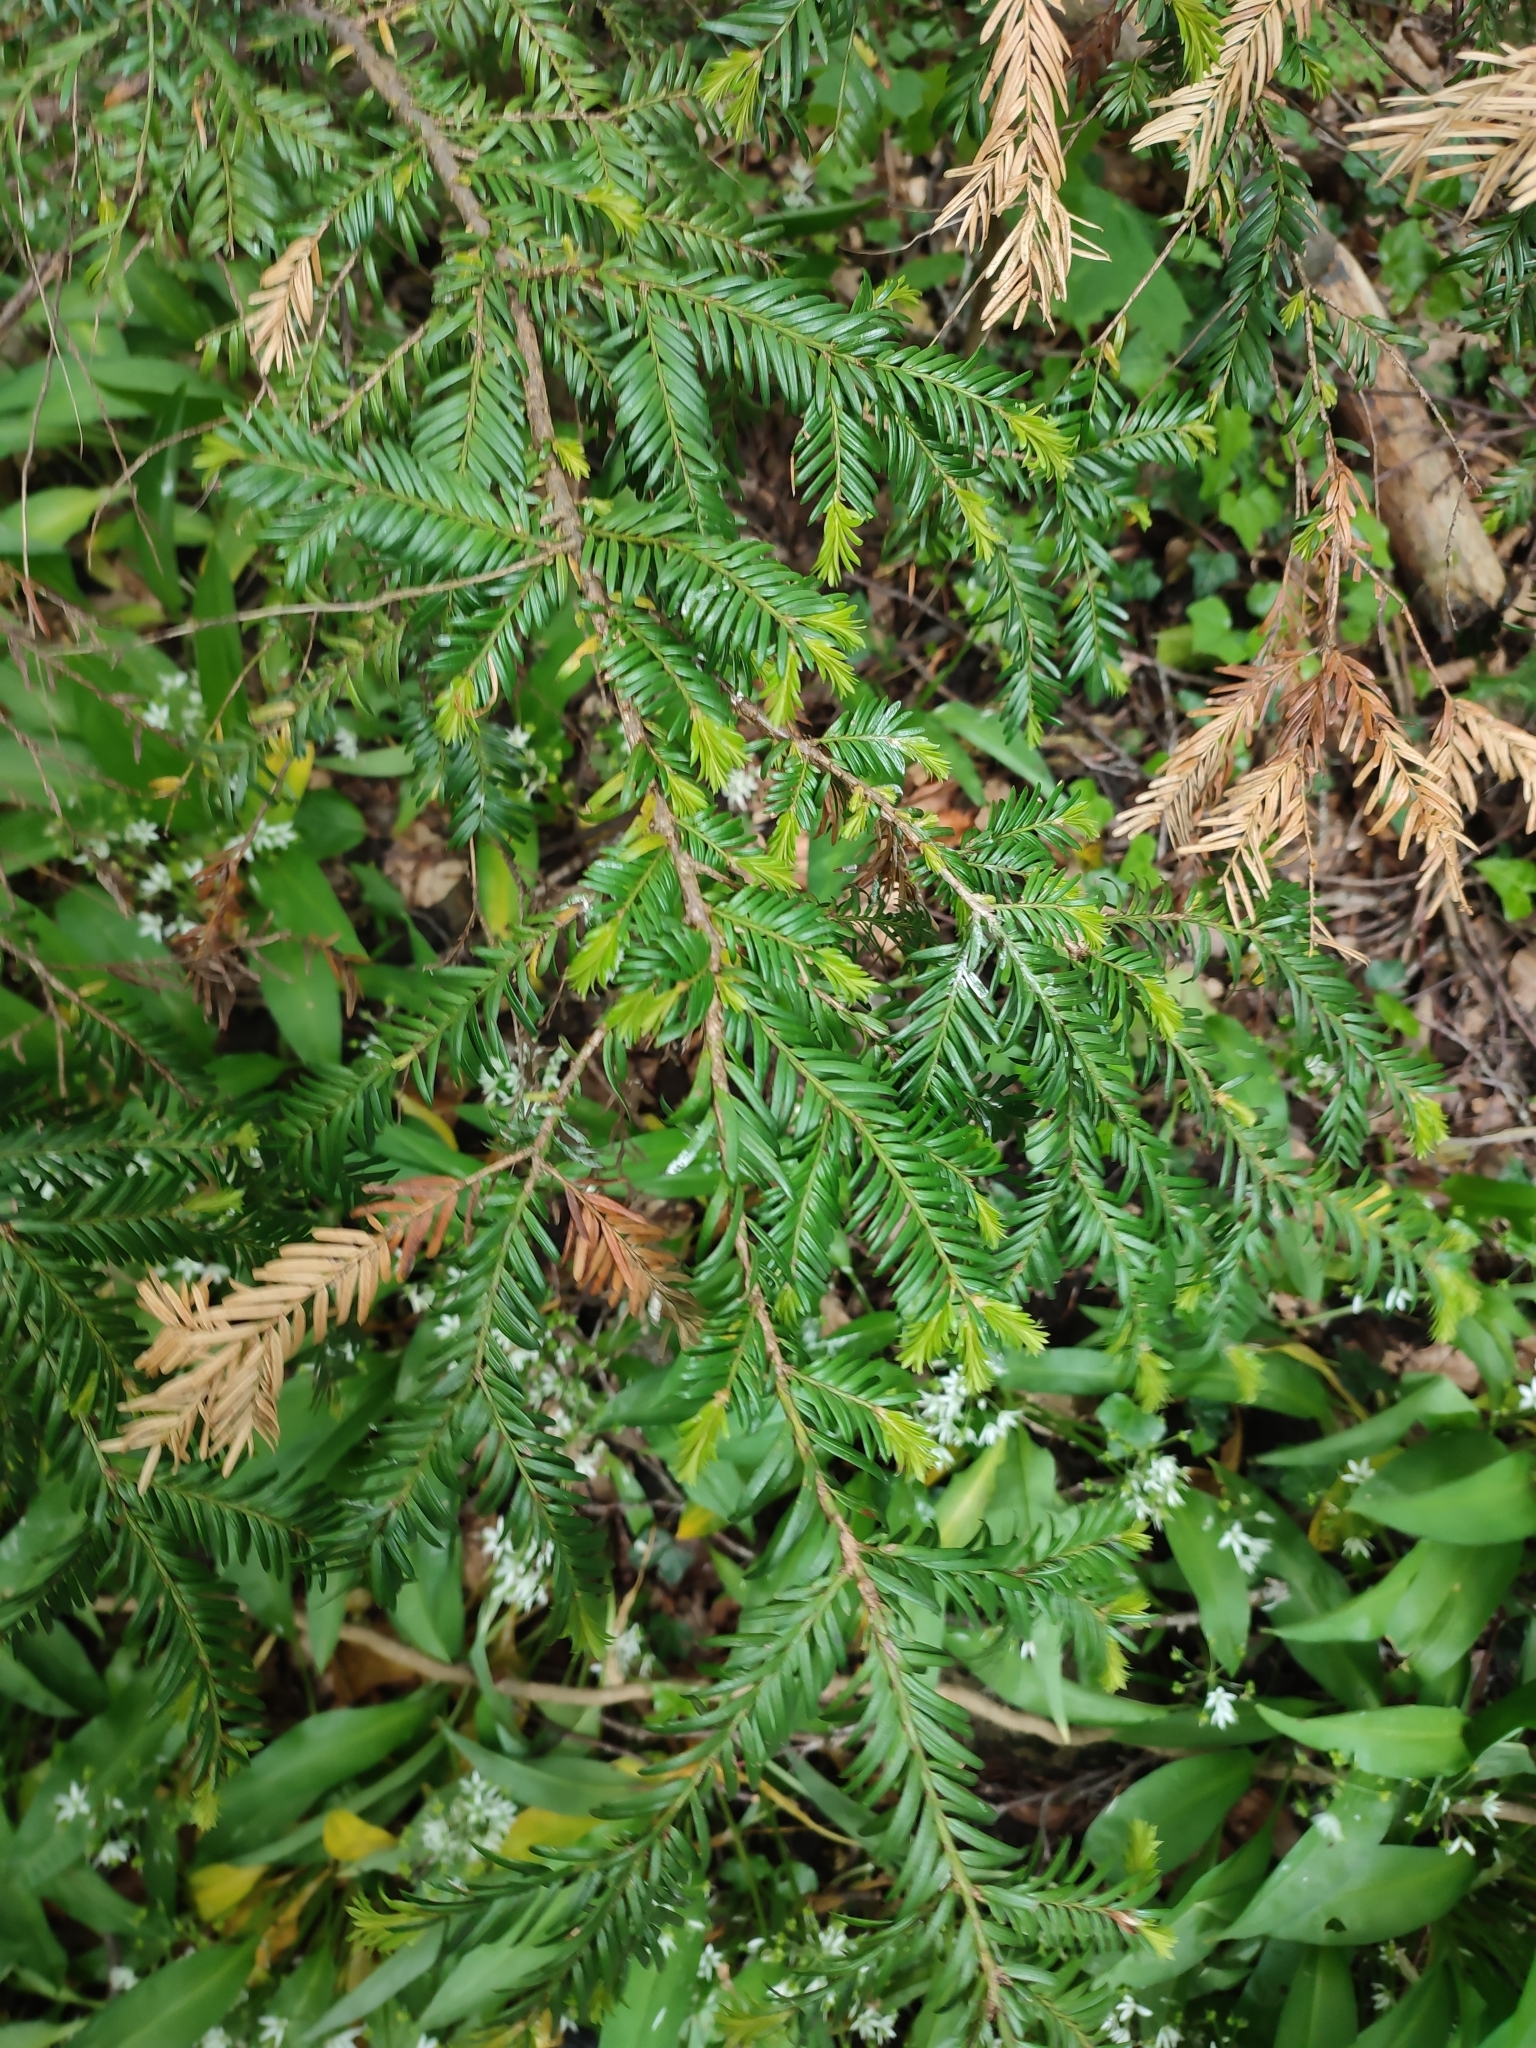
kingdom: Plantae
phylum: Tracheophyta
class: Pinopsida
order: Pinales
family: Taxaceae
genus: Taxus
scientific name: Taxus baccata
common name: Yew
